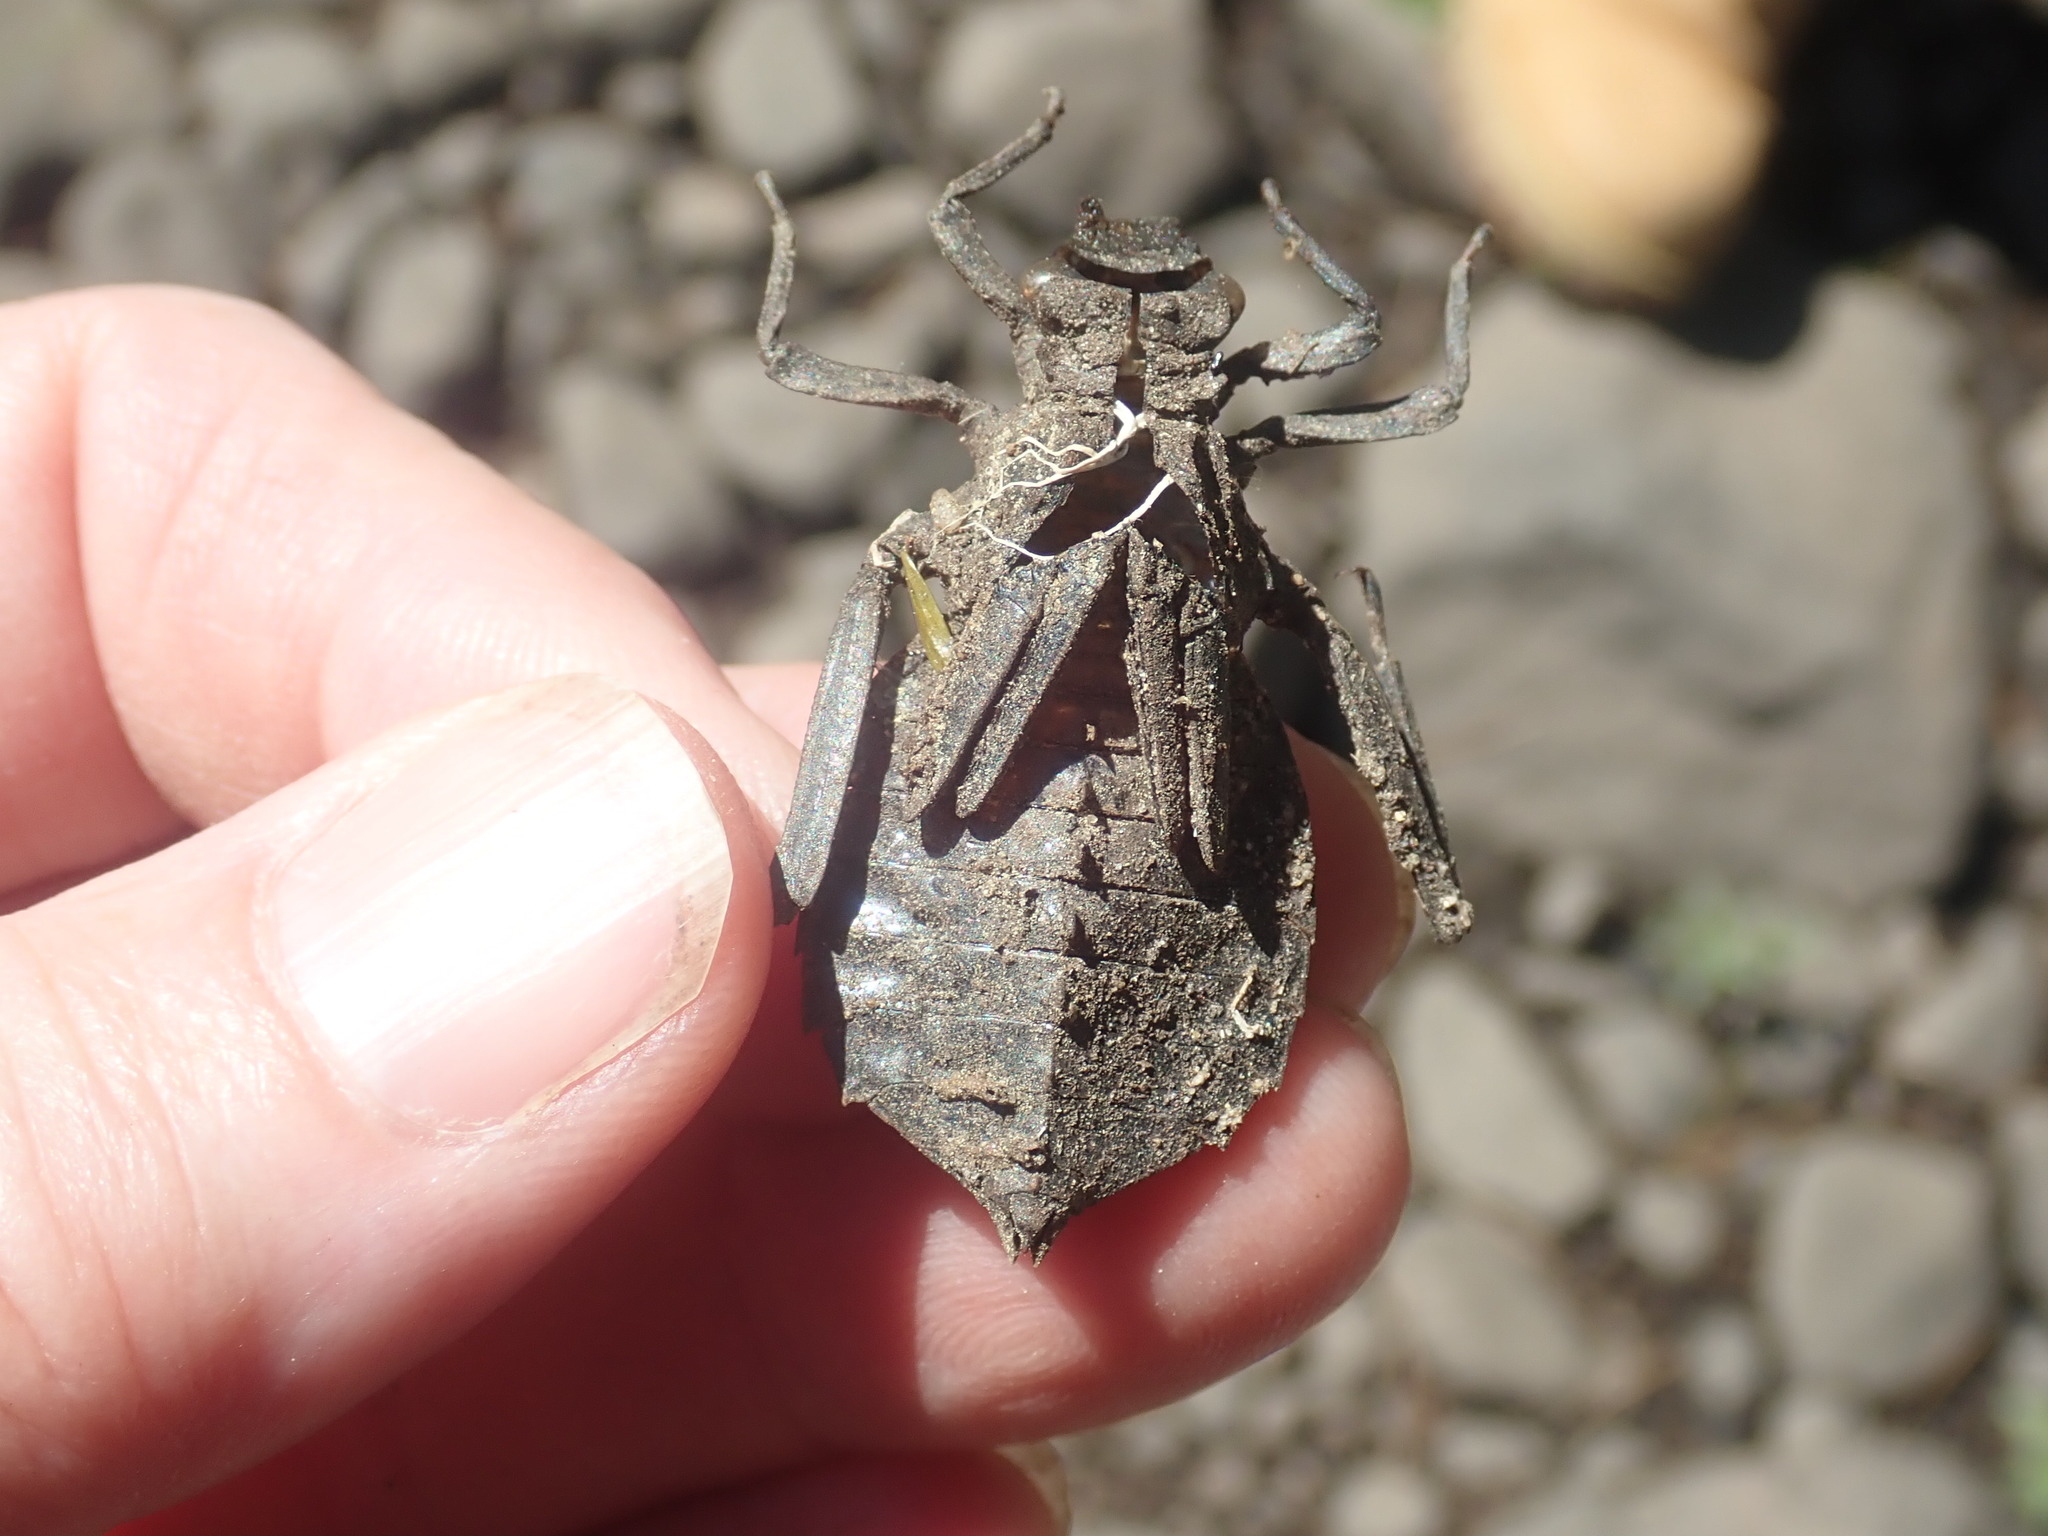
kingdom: Animalia
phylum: Arthropoda
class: Insecta
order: Odonata
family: Gomphidae
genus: Hagenius
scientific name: Hagenius brevistylus
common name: Dragonhunter
